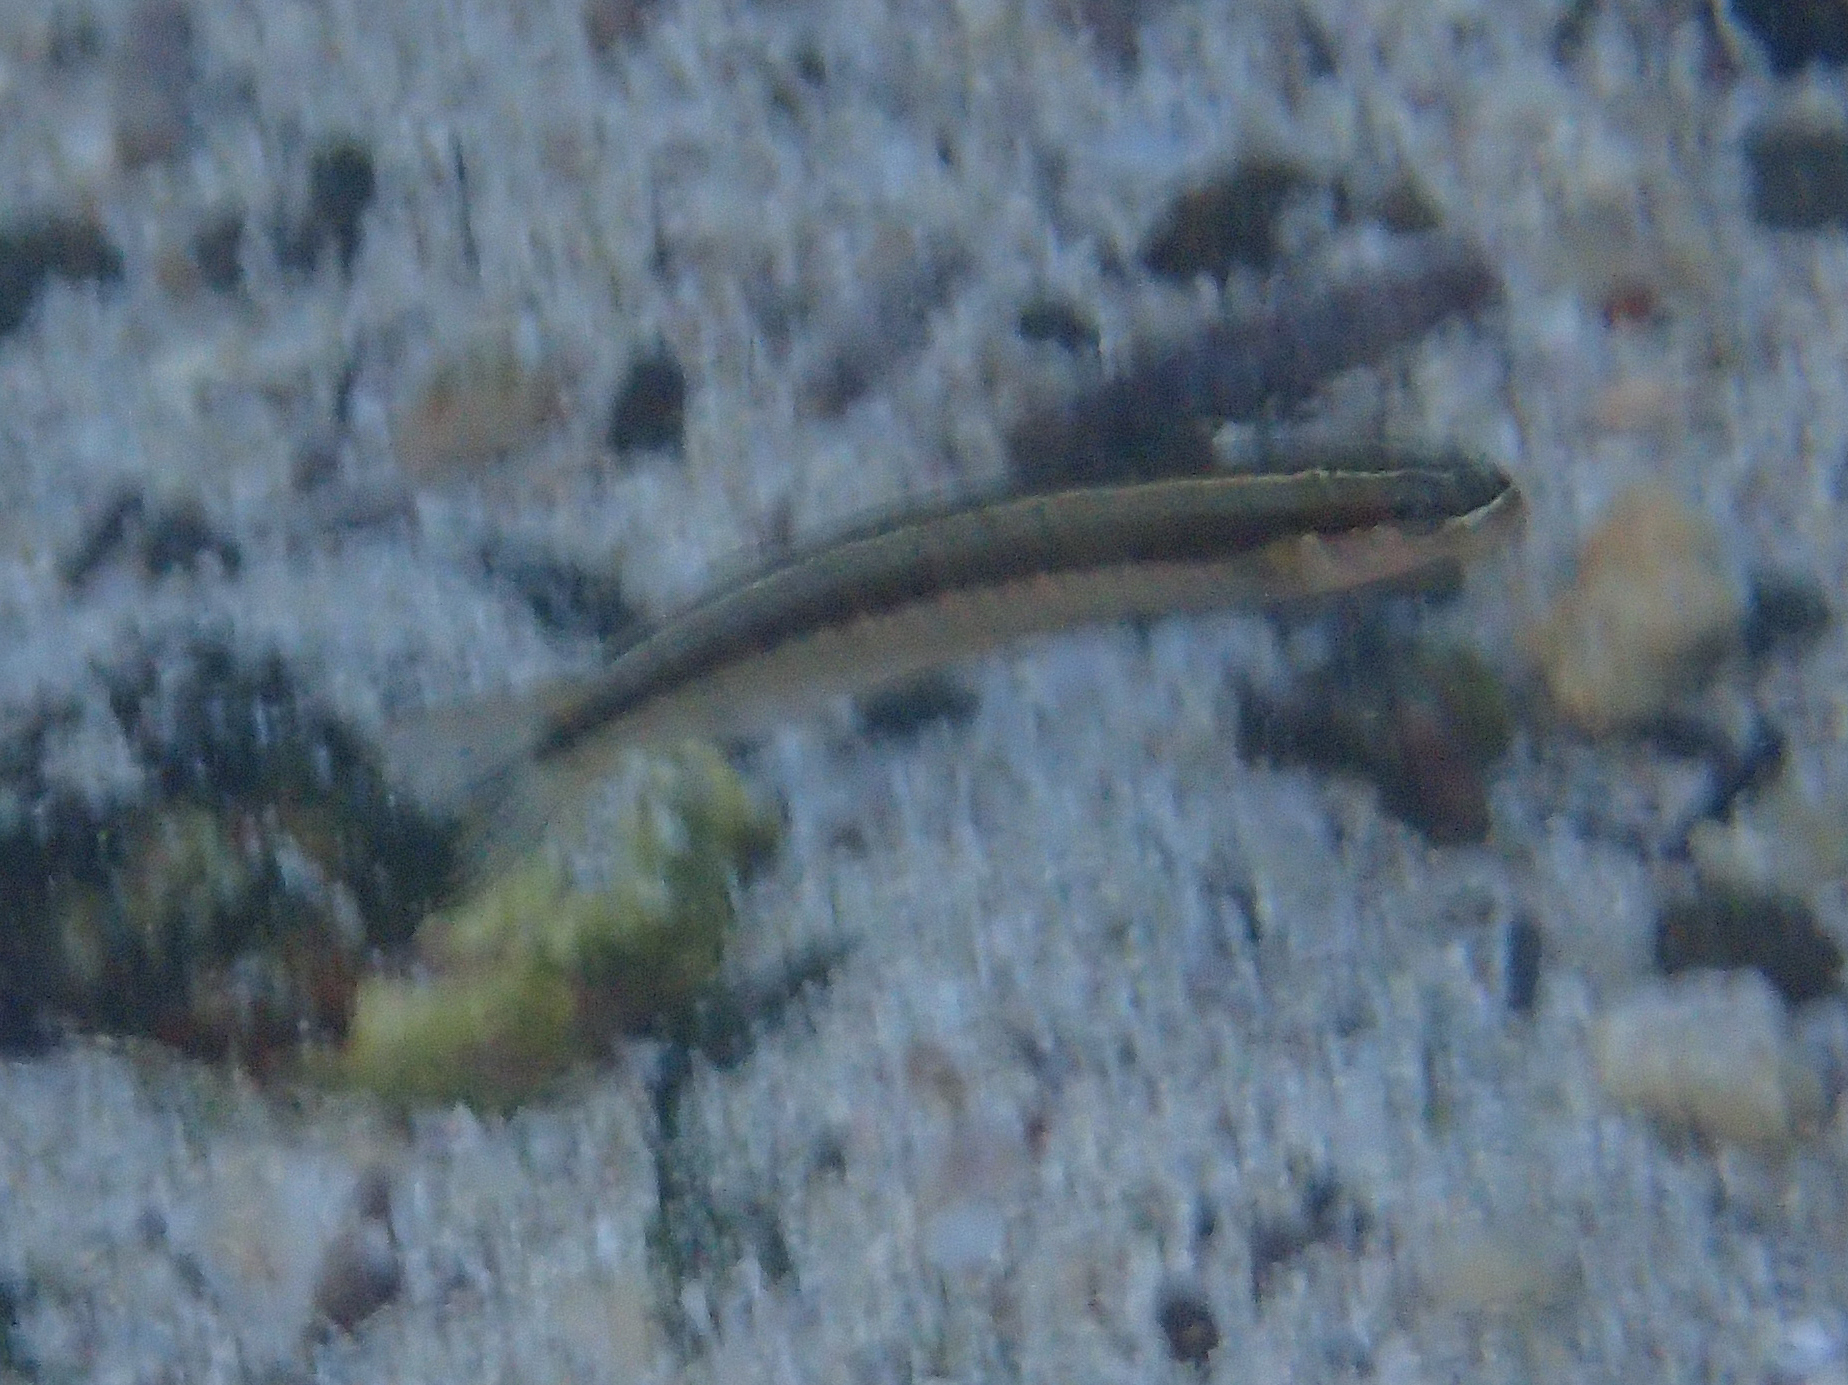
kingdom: Animalia
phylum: Chordata
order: Perciformes
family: Blenniidae
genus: Plagiotremus
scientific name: Plagiotremus azaleus
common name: Sabertooth blenny
